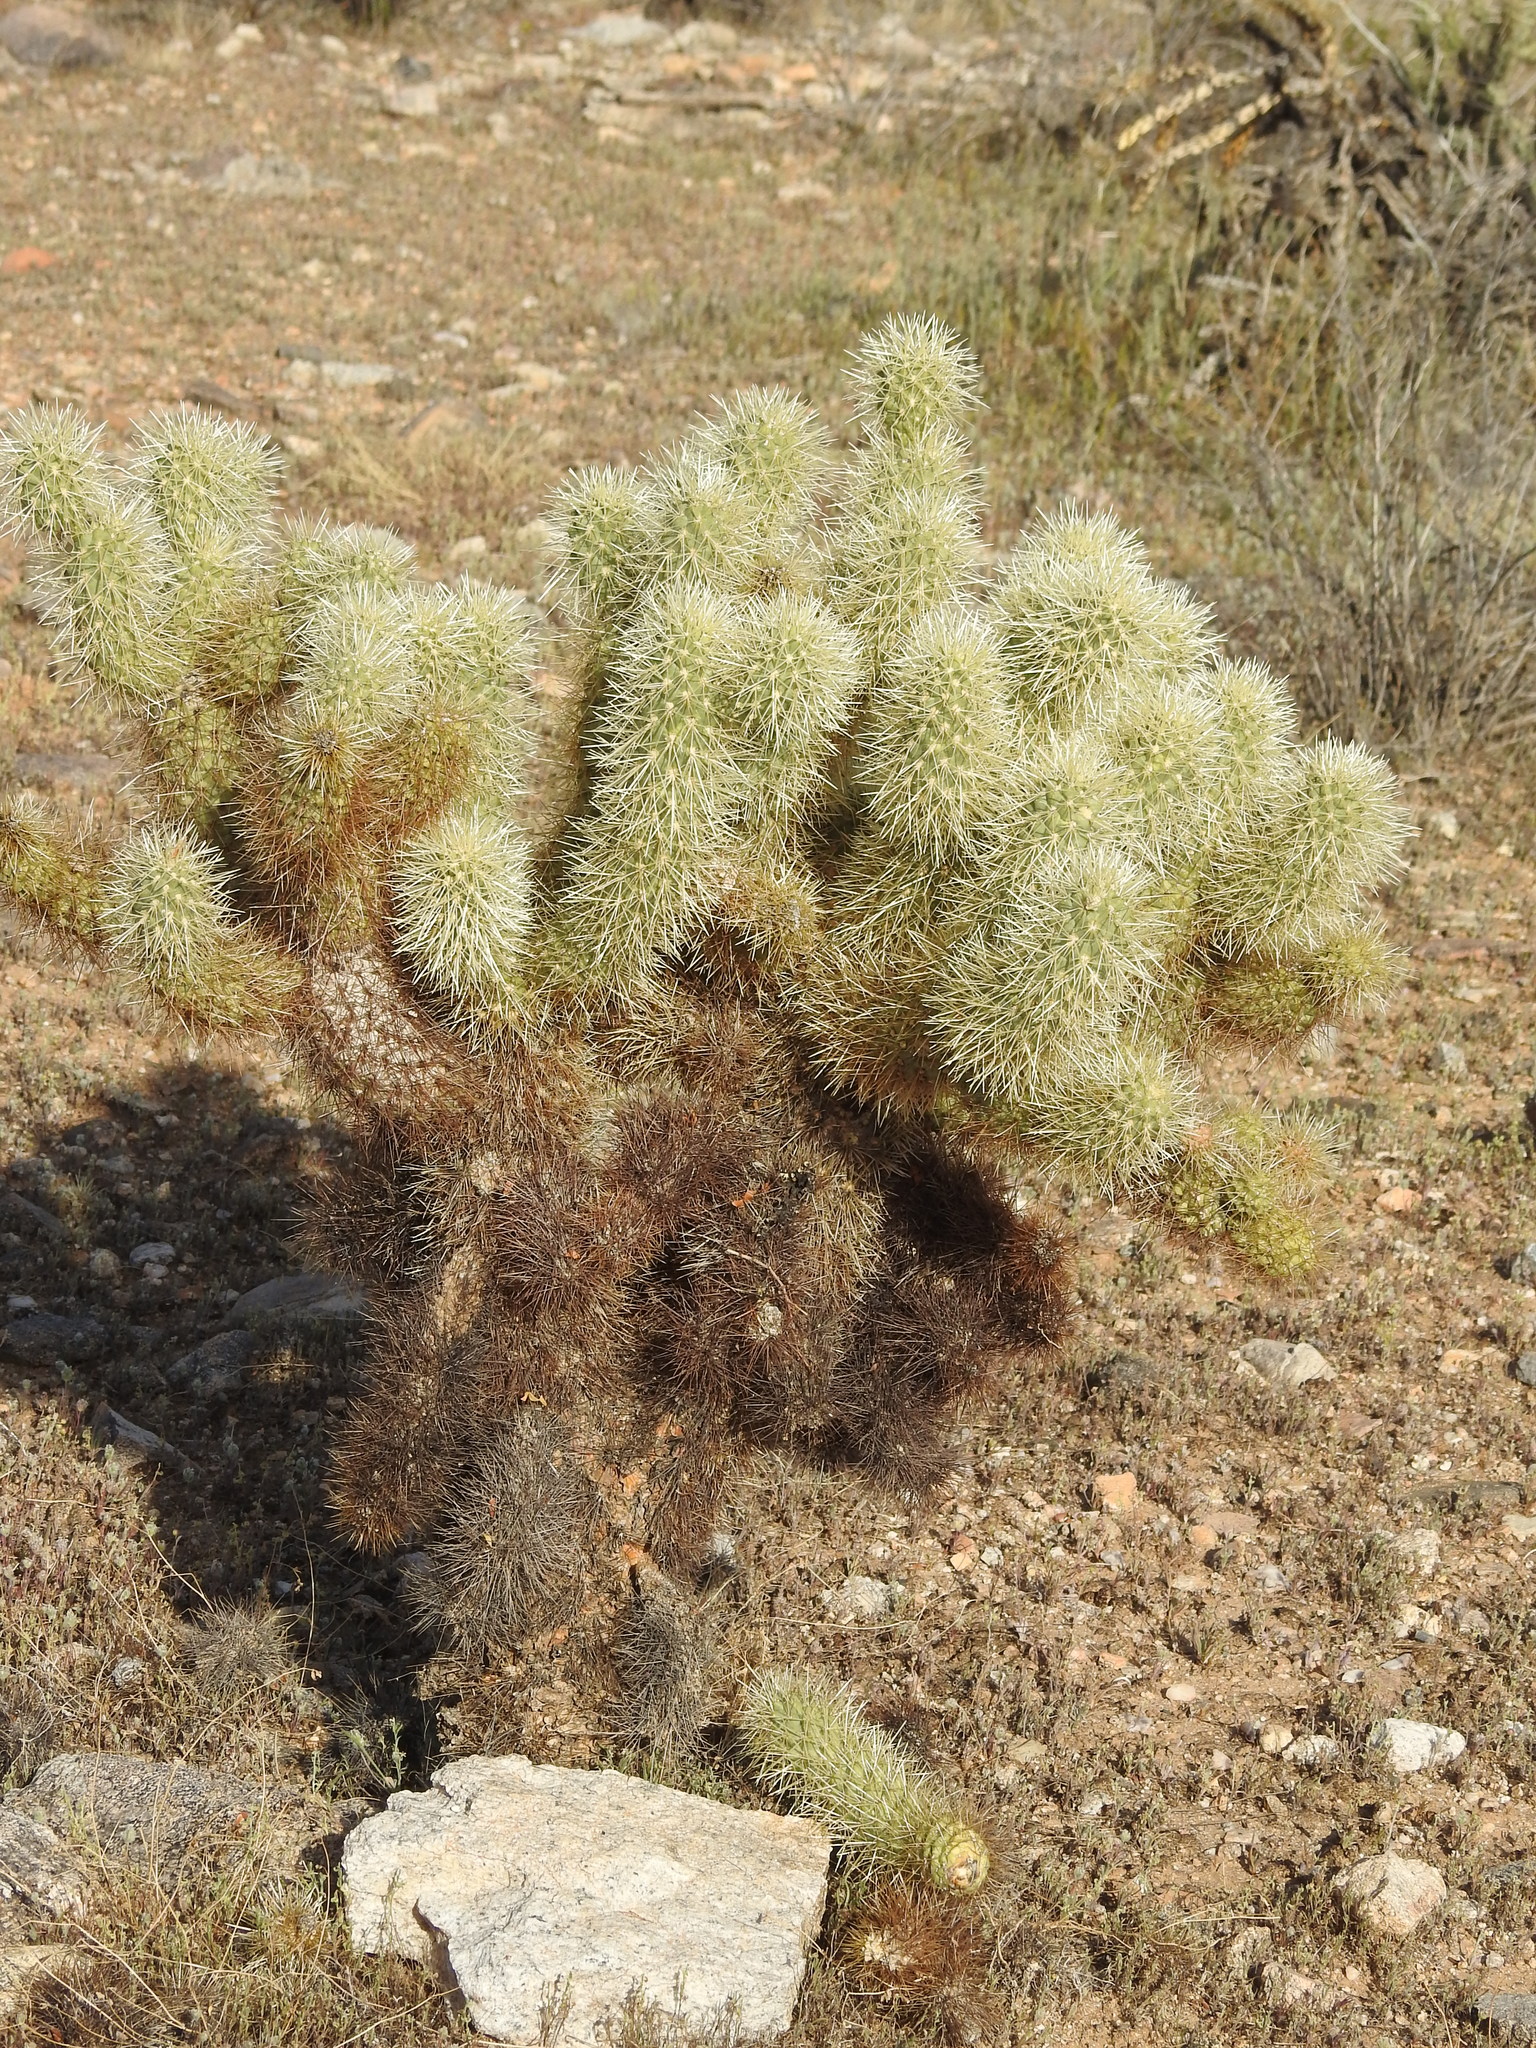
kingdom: Plantae
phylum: Tracheophyta
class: Magnoliopsida
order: Caryophyllales
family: Cactaceae
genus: Cylindropuntia
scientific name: Cylindropuntia fosbergii
